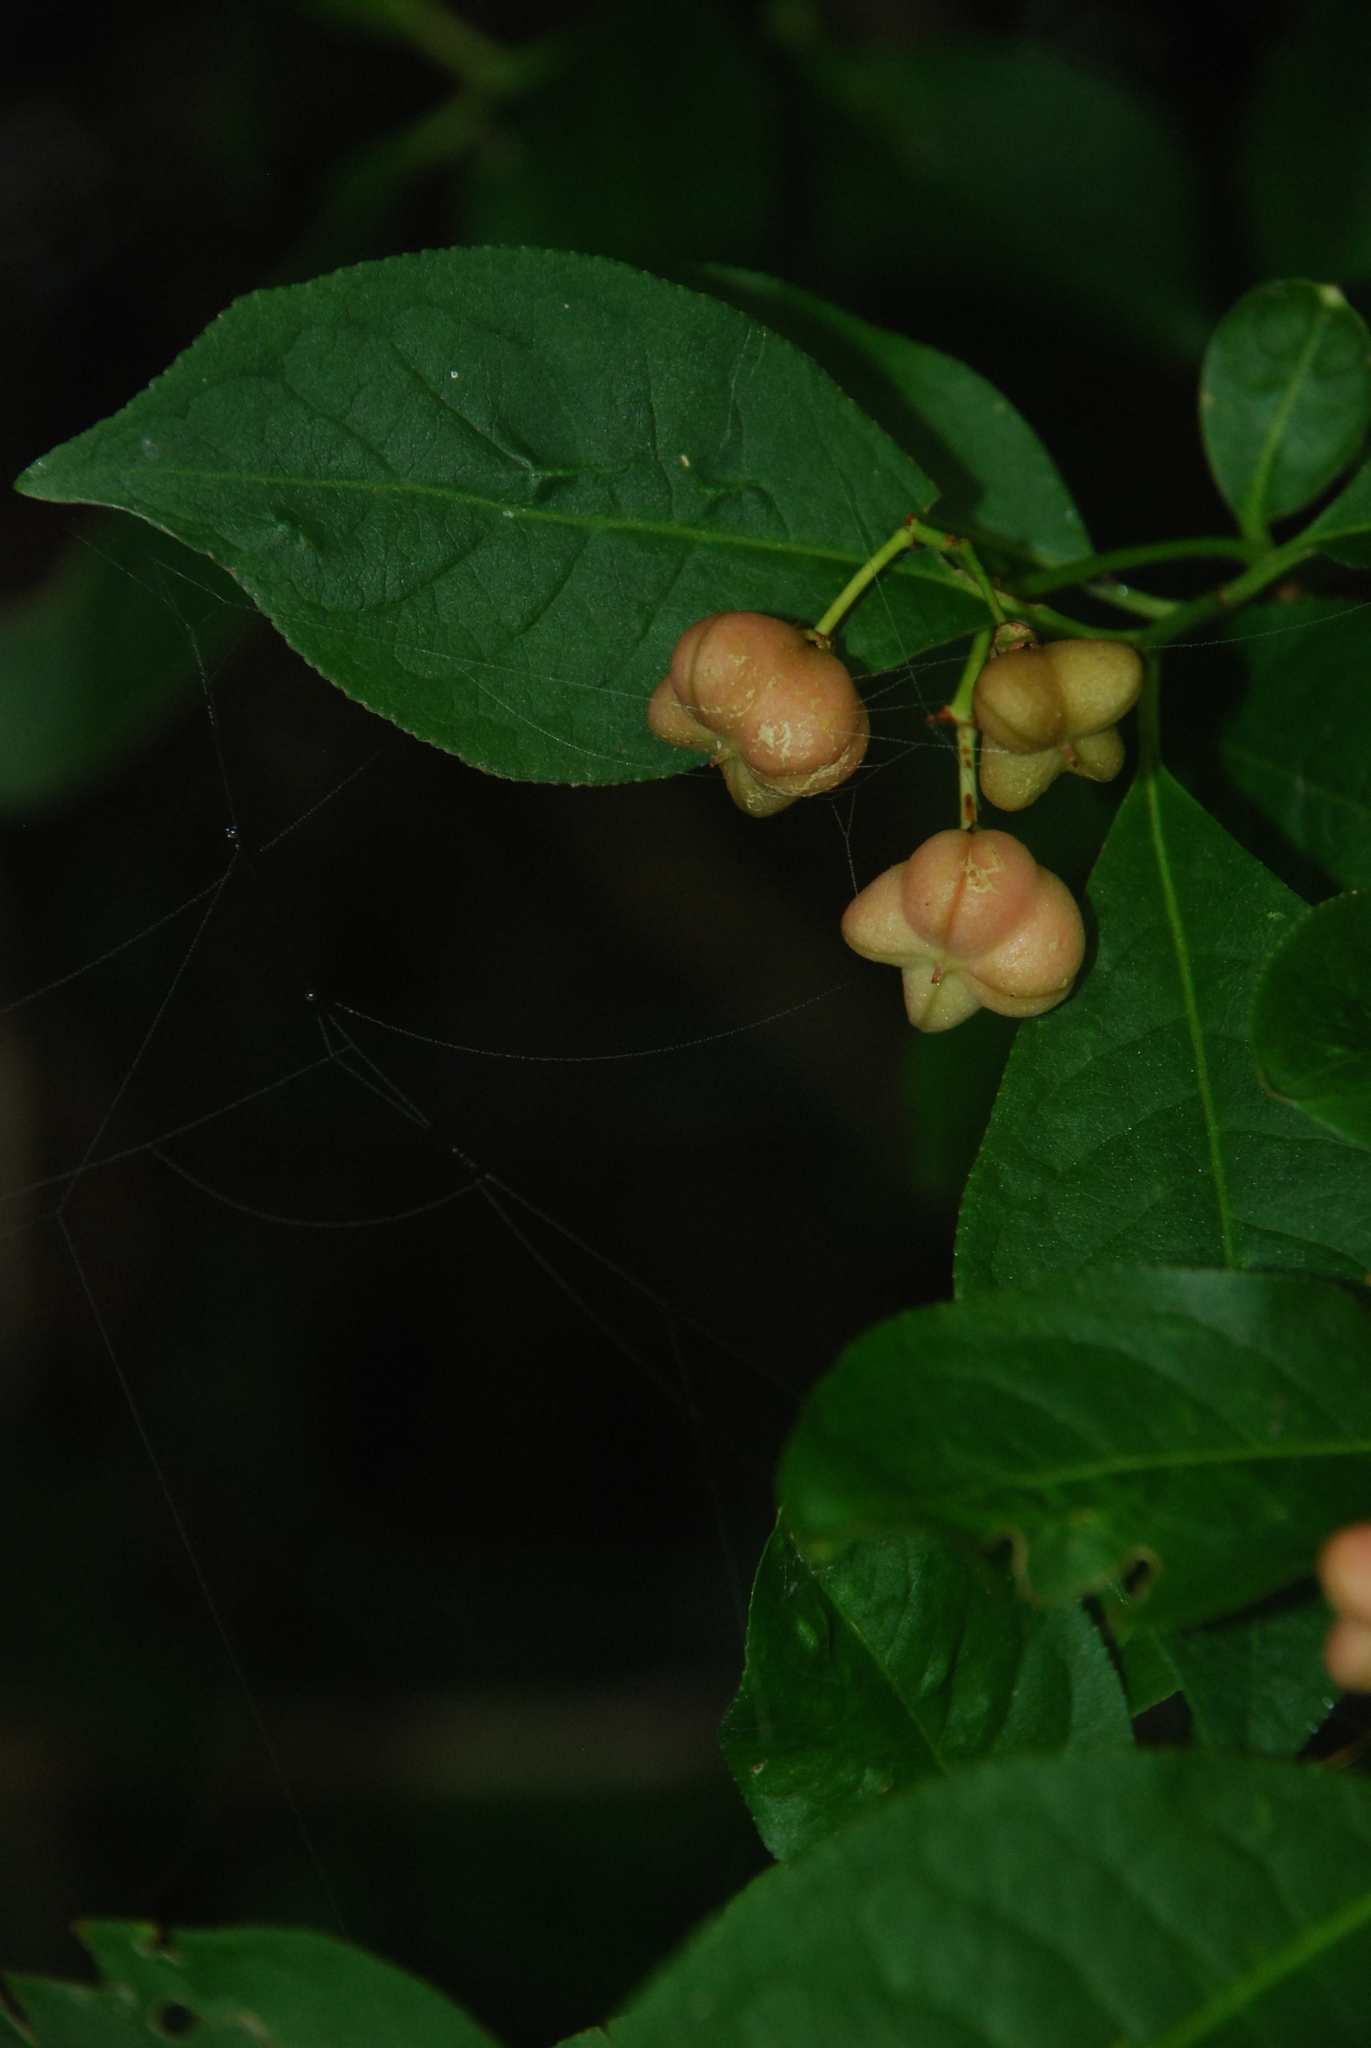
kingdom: Plantae
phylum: Tracheophyta
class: Magnoliopsida
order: Celastrales
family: Celastraceae
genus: Euonymus
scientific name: Euonymus europaeus
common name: Spindle
